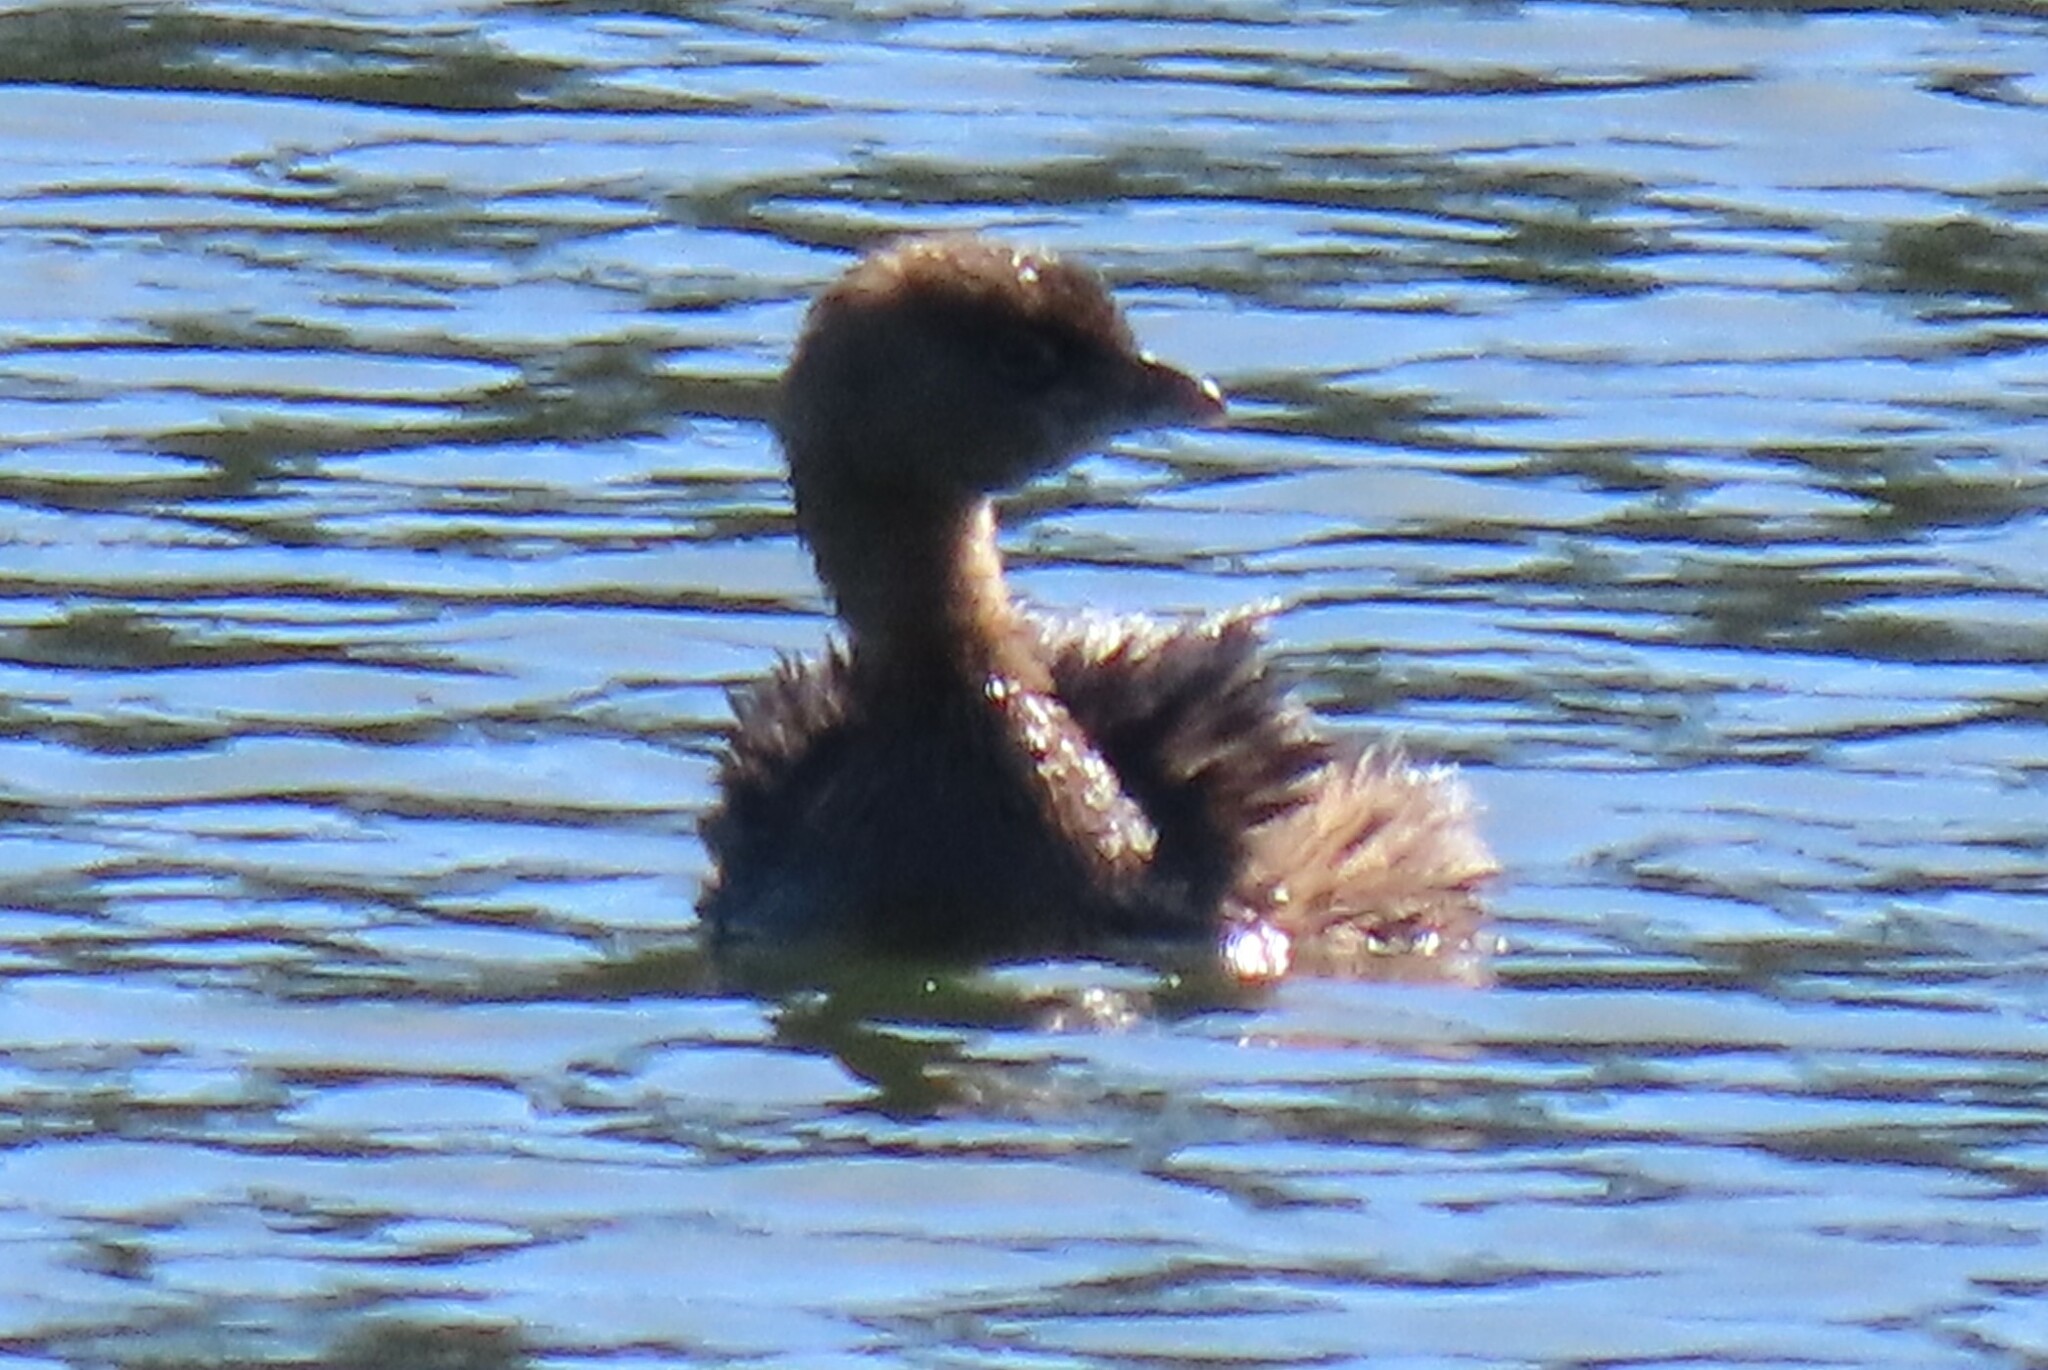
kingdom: Animalia
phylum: Chordata
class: Aves
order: Podicipediformes
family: Podicipedidae
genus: Podilymbus
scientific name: Podilymbus podiceps
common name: Pied-billed grebe
